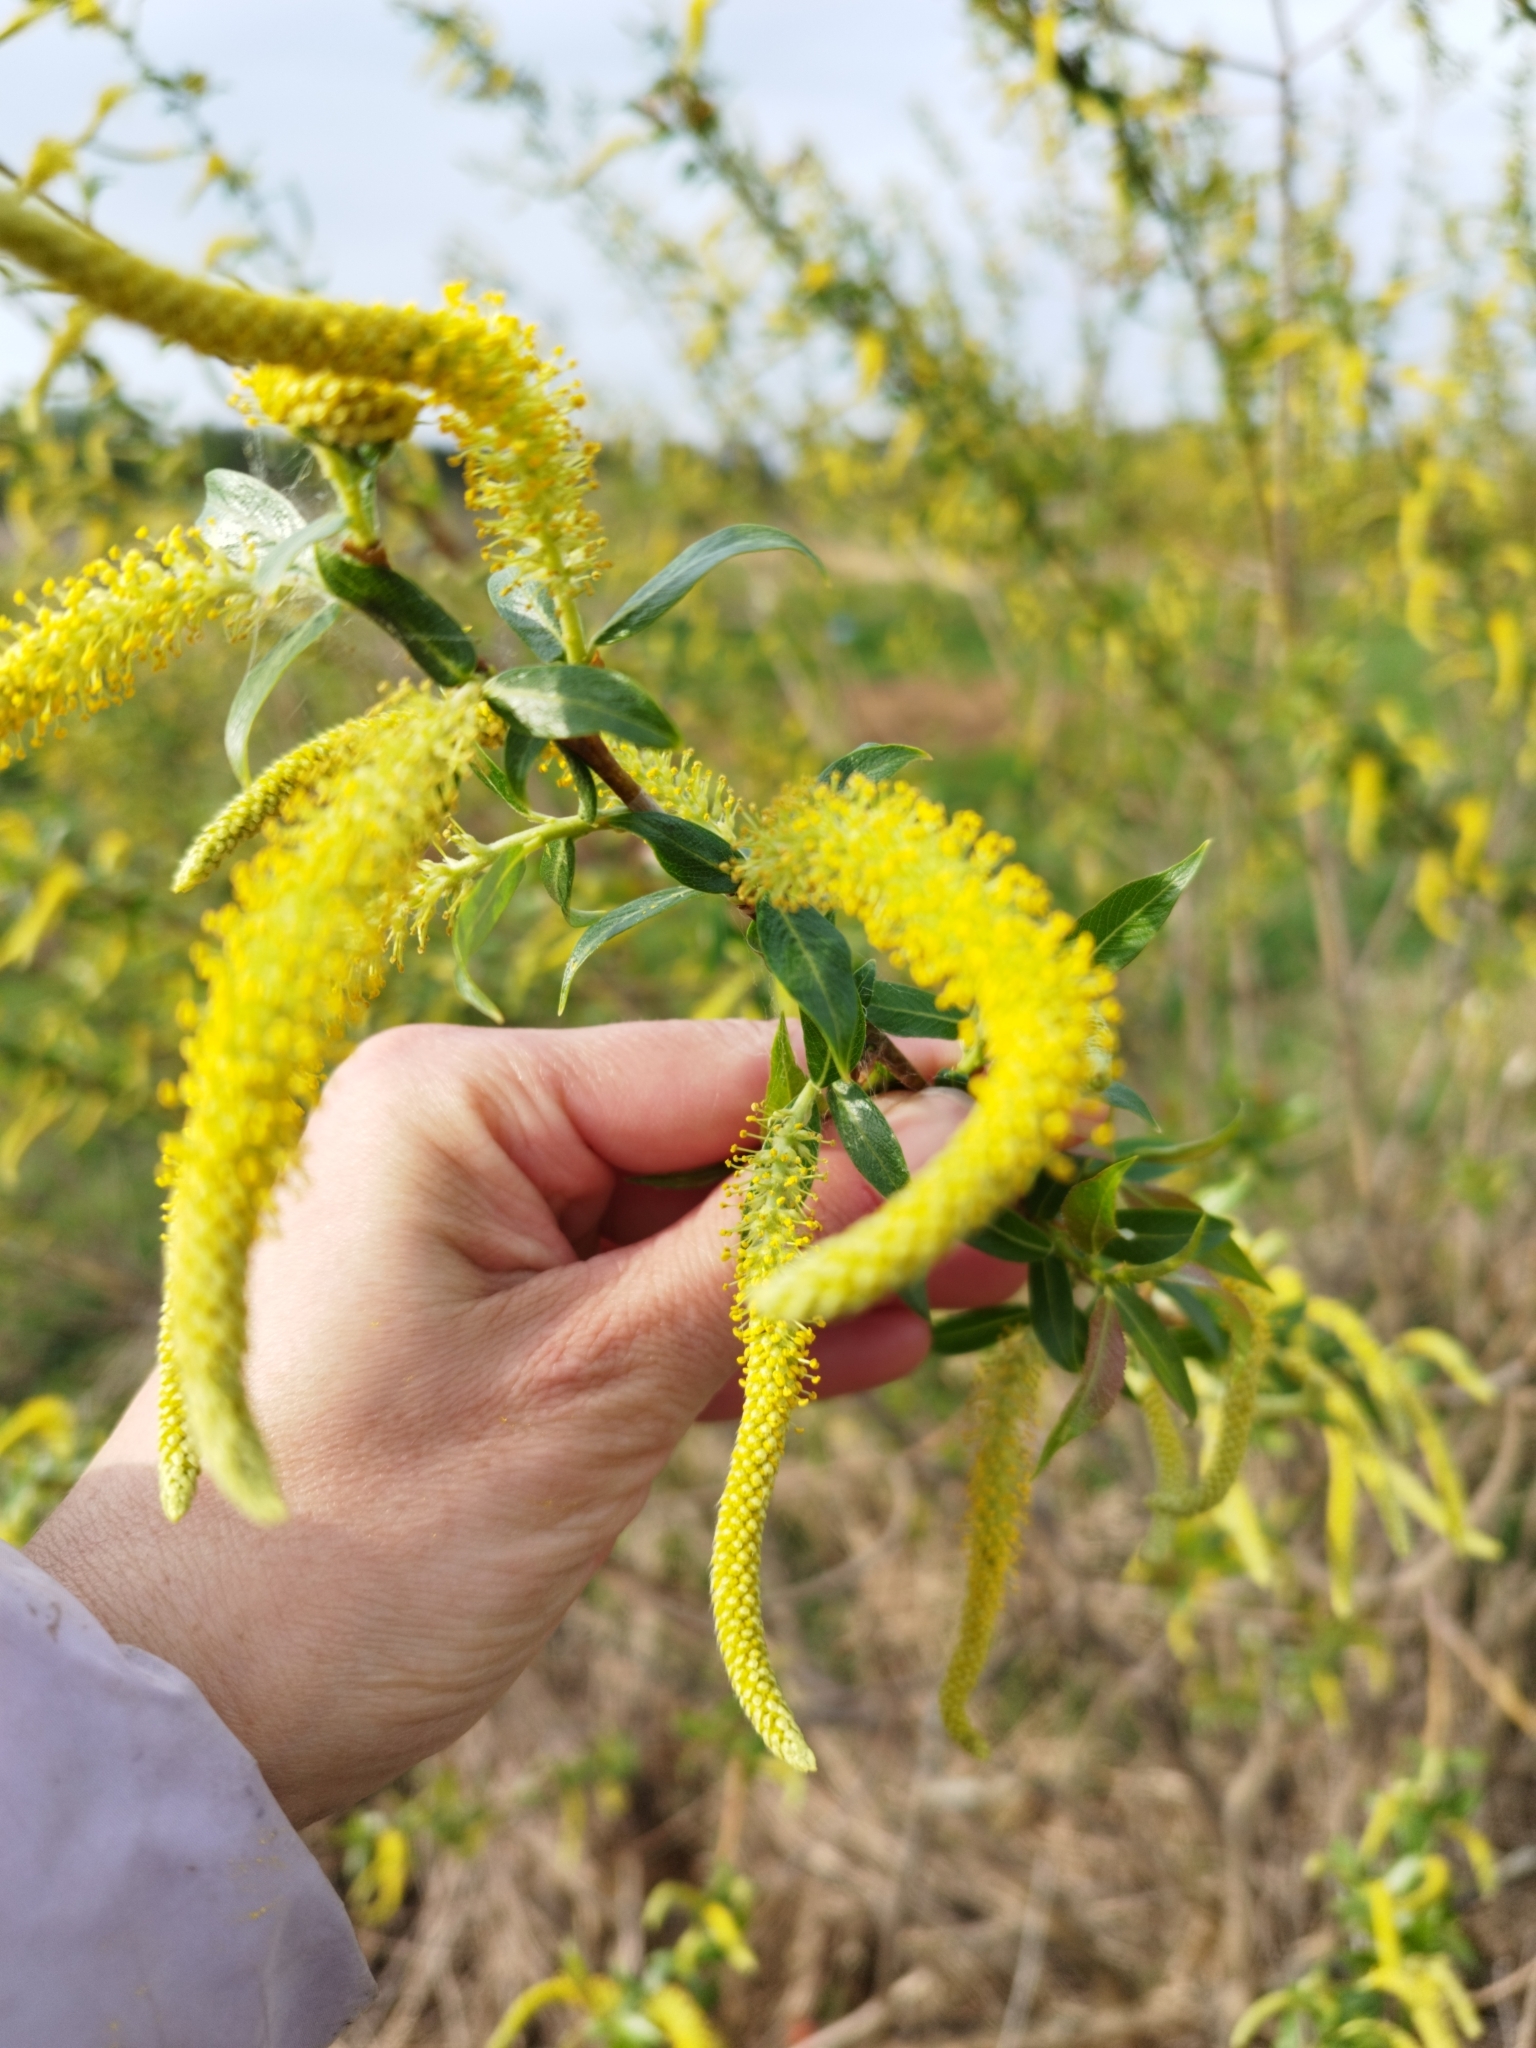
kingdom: Plantae
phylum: Tracheophyta
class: Magnoliopsida
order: Malpighiales
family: Salicaceae
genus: Salix
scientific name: Salix triandra
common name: Almond willow
